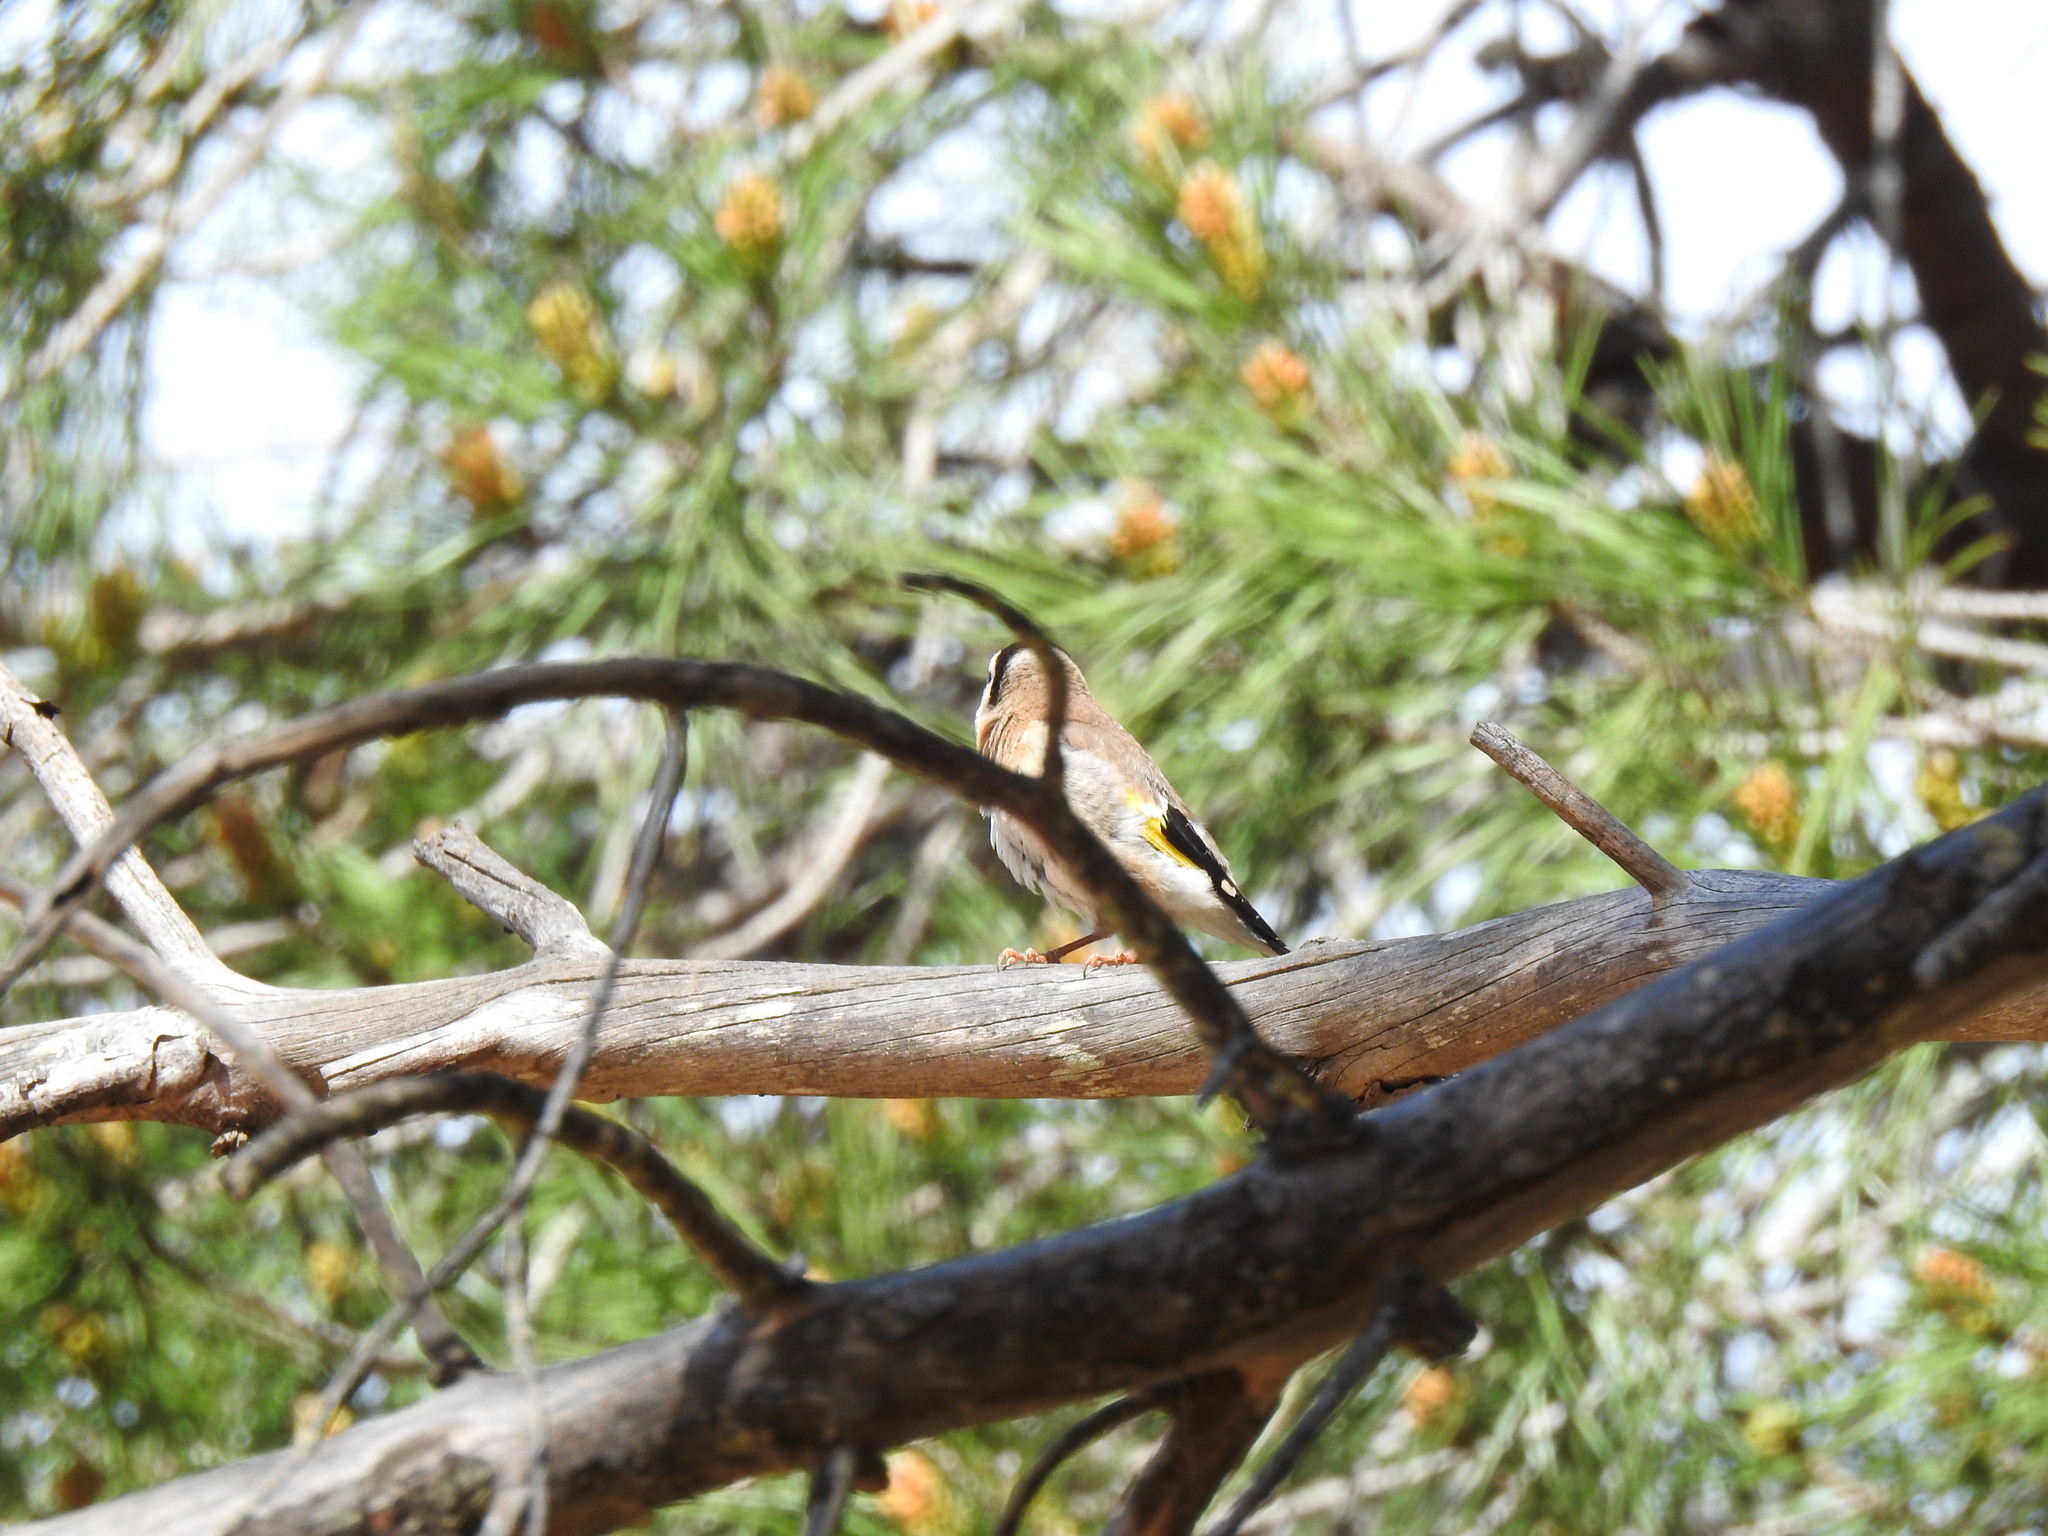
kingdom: Animalia
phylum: Chordata
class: Aves
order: Passeriformes
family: Fringillidae
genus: Carduelis
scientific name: Carduelis carduelis
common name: European goldfinch
